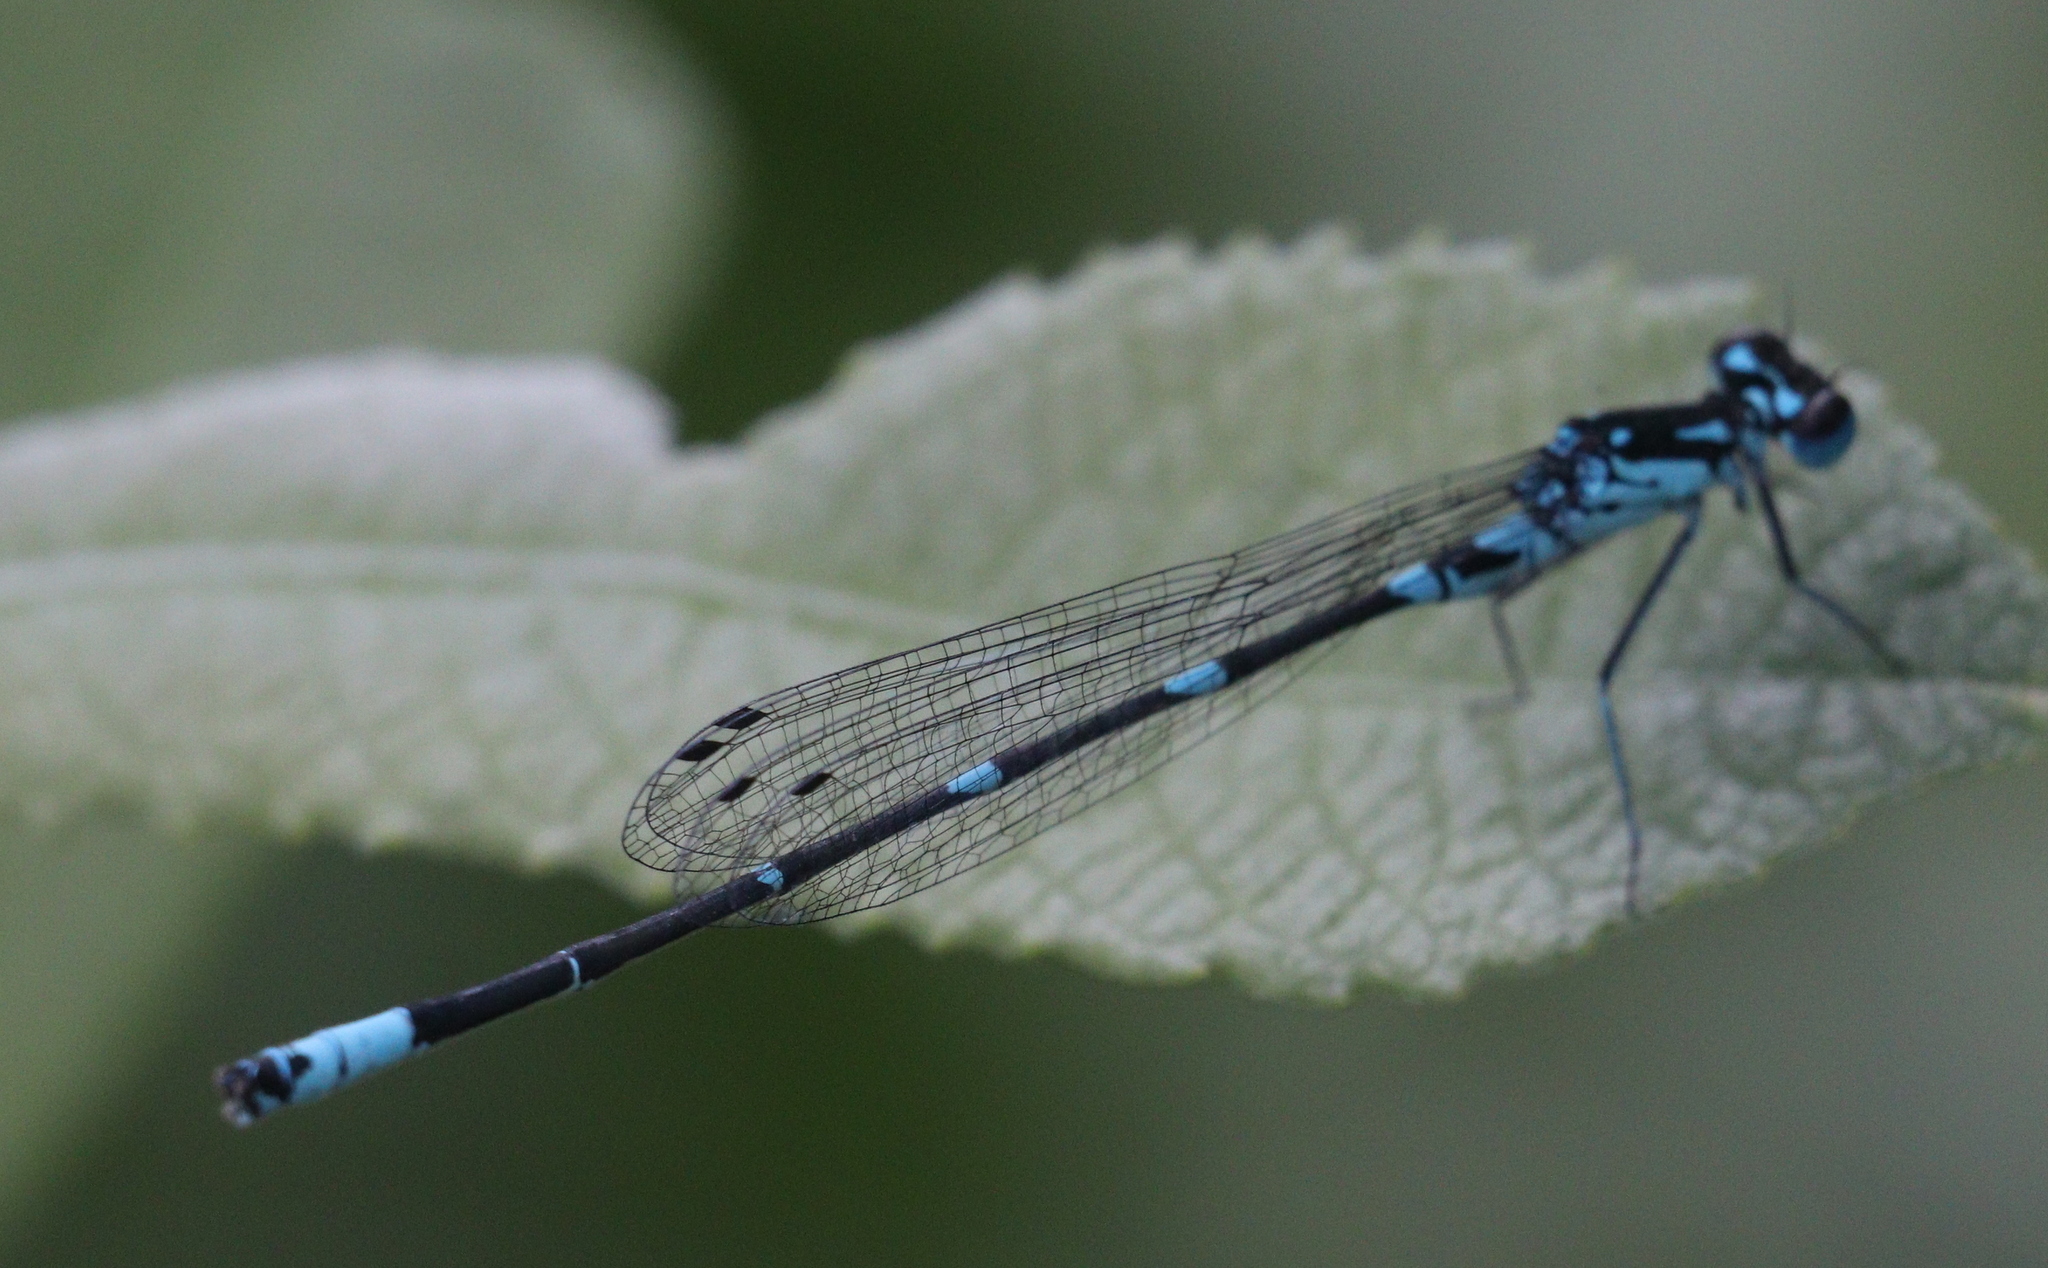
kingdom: Animalia
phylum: Arthropoda
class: Insecta
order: Odonata
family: Coenagrionidae
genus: Coenagrion
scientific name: Coenagrion pulchellum
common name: Variable bluet
